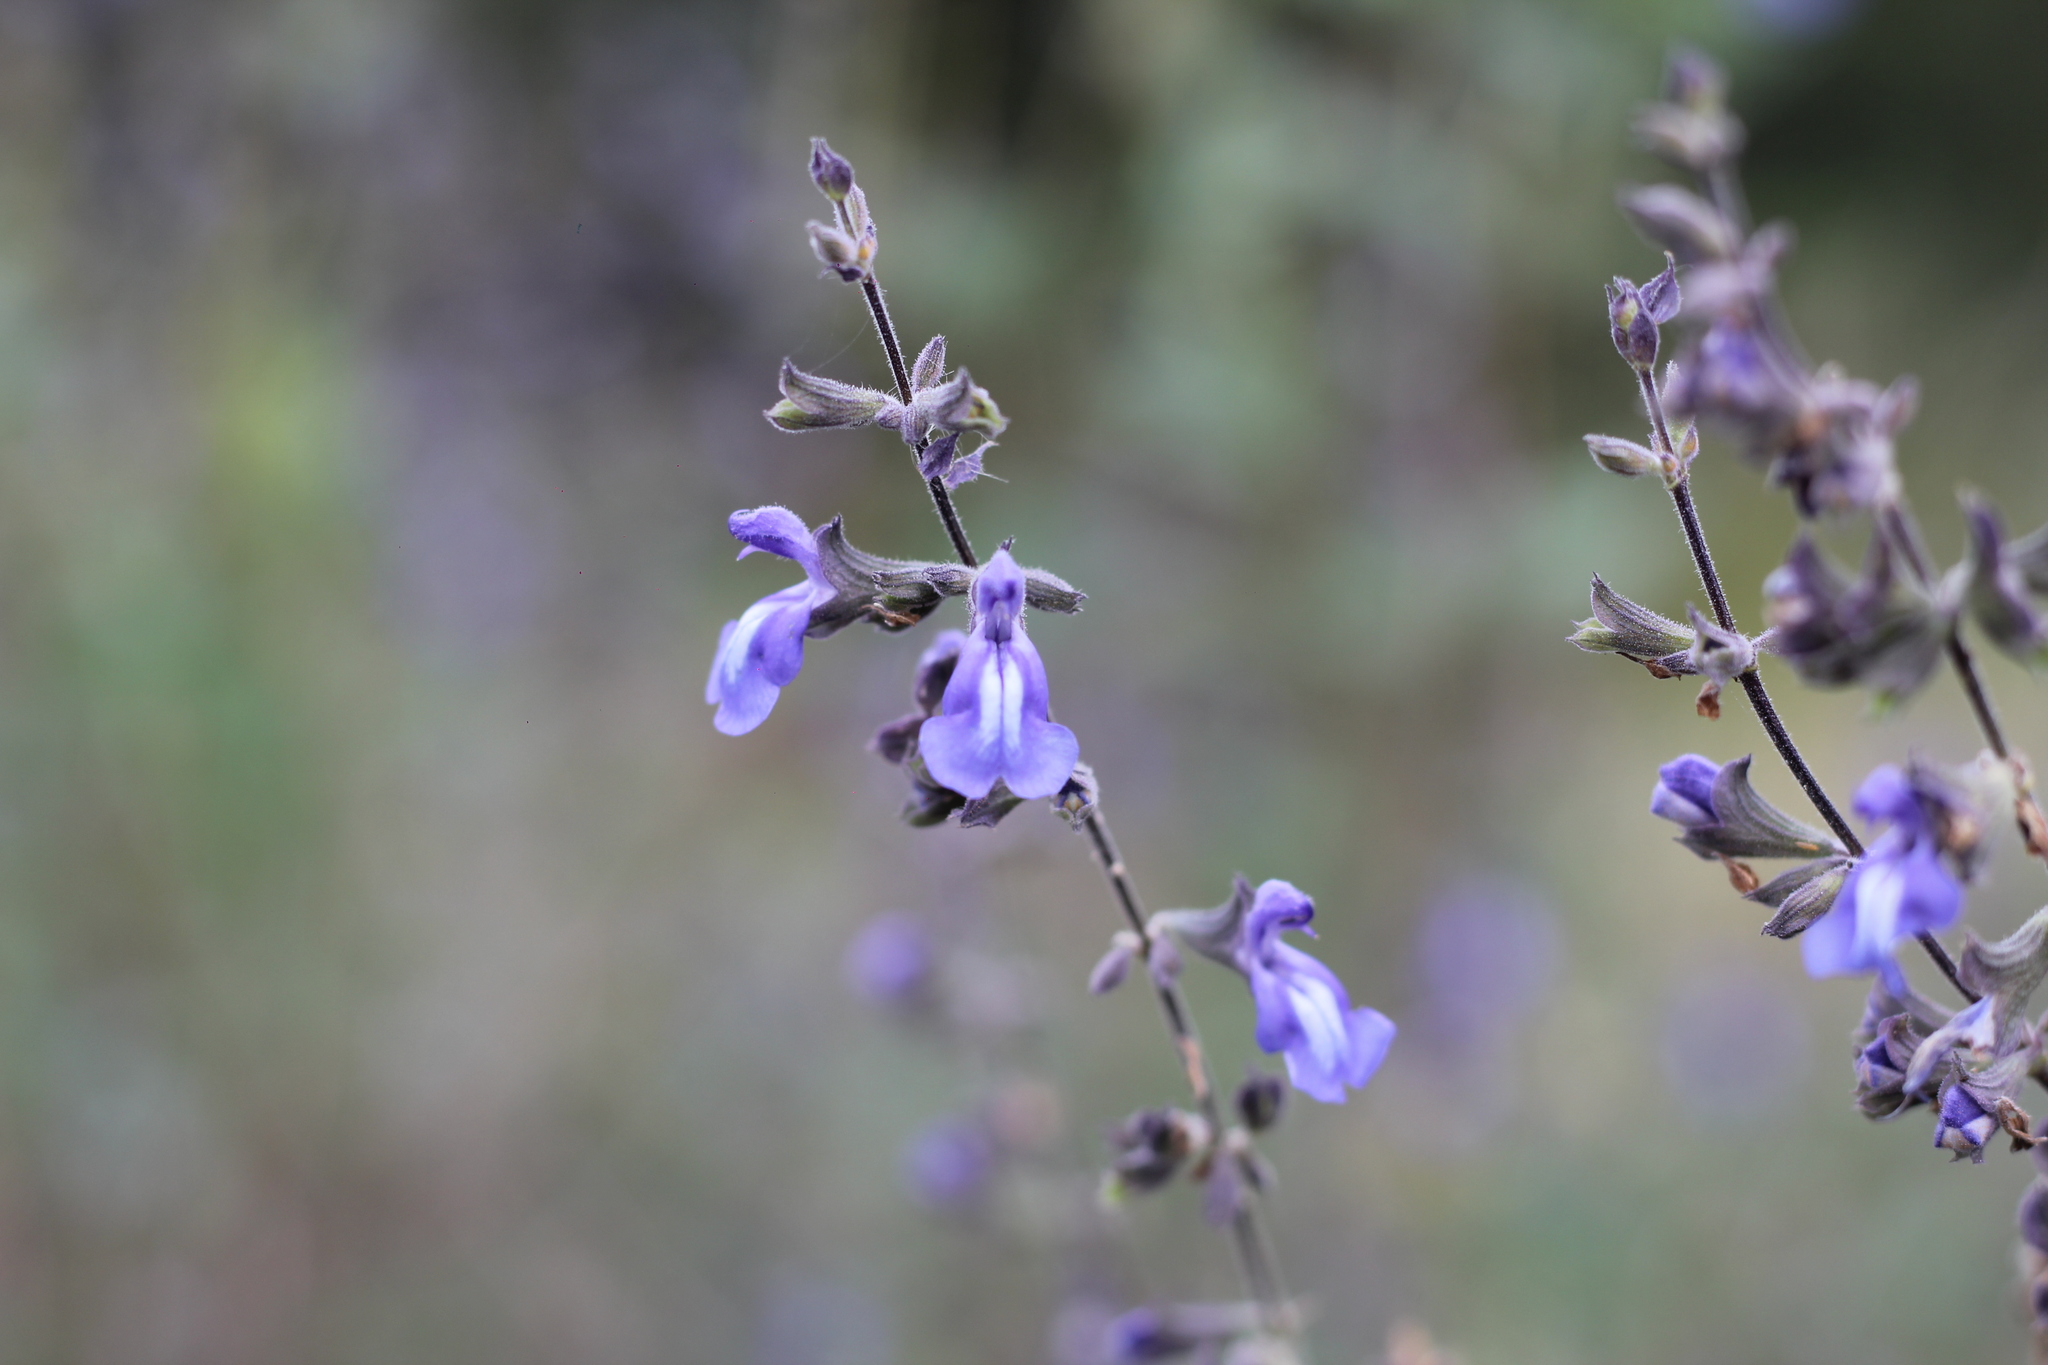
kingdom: Plantae
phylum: Tracheophyta
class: Magnoliopsida
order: Lamiales
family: Lamiaceae
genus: Salvia
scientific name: Salvia cuspidata
